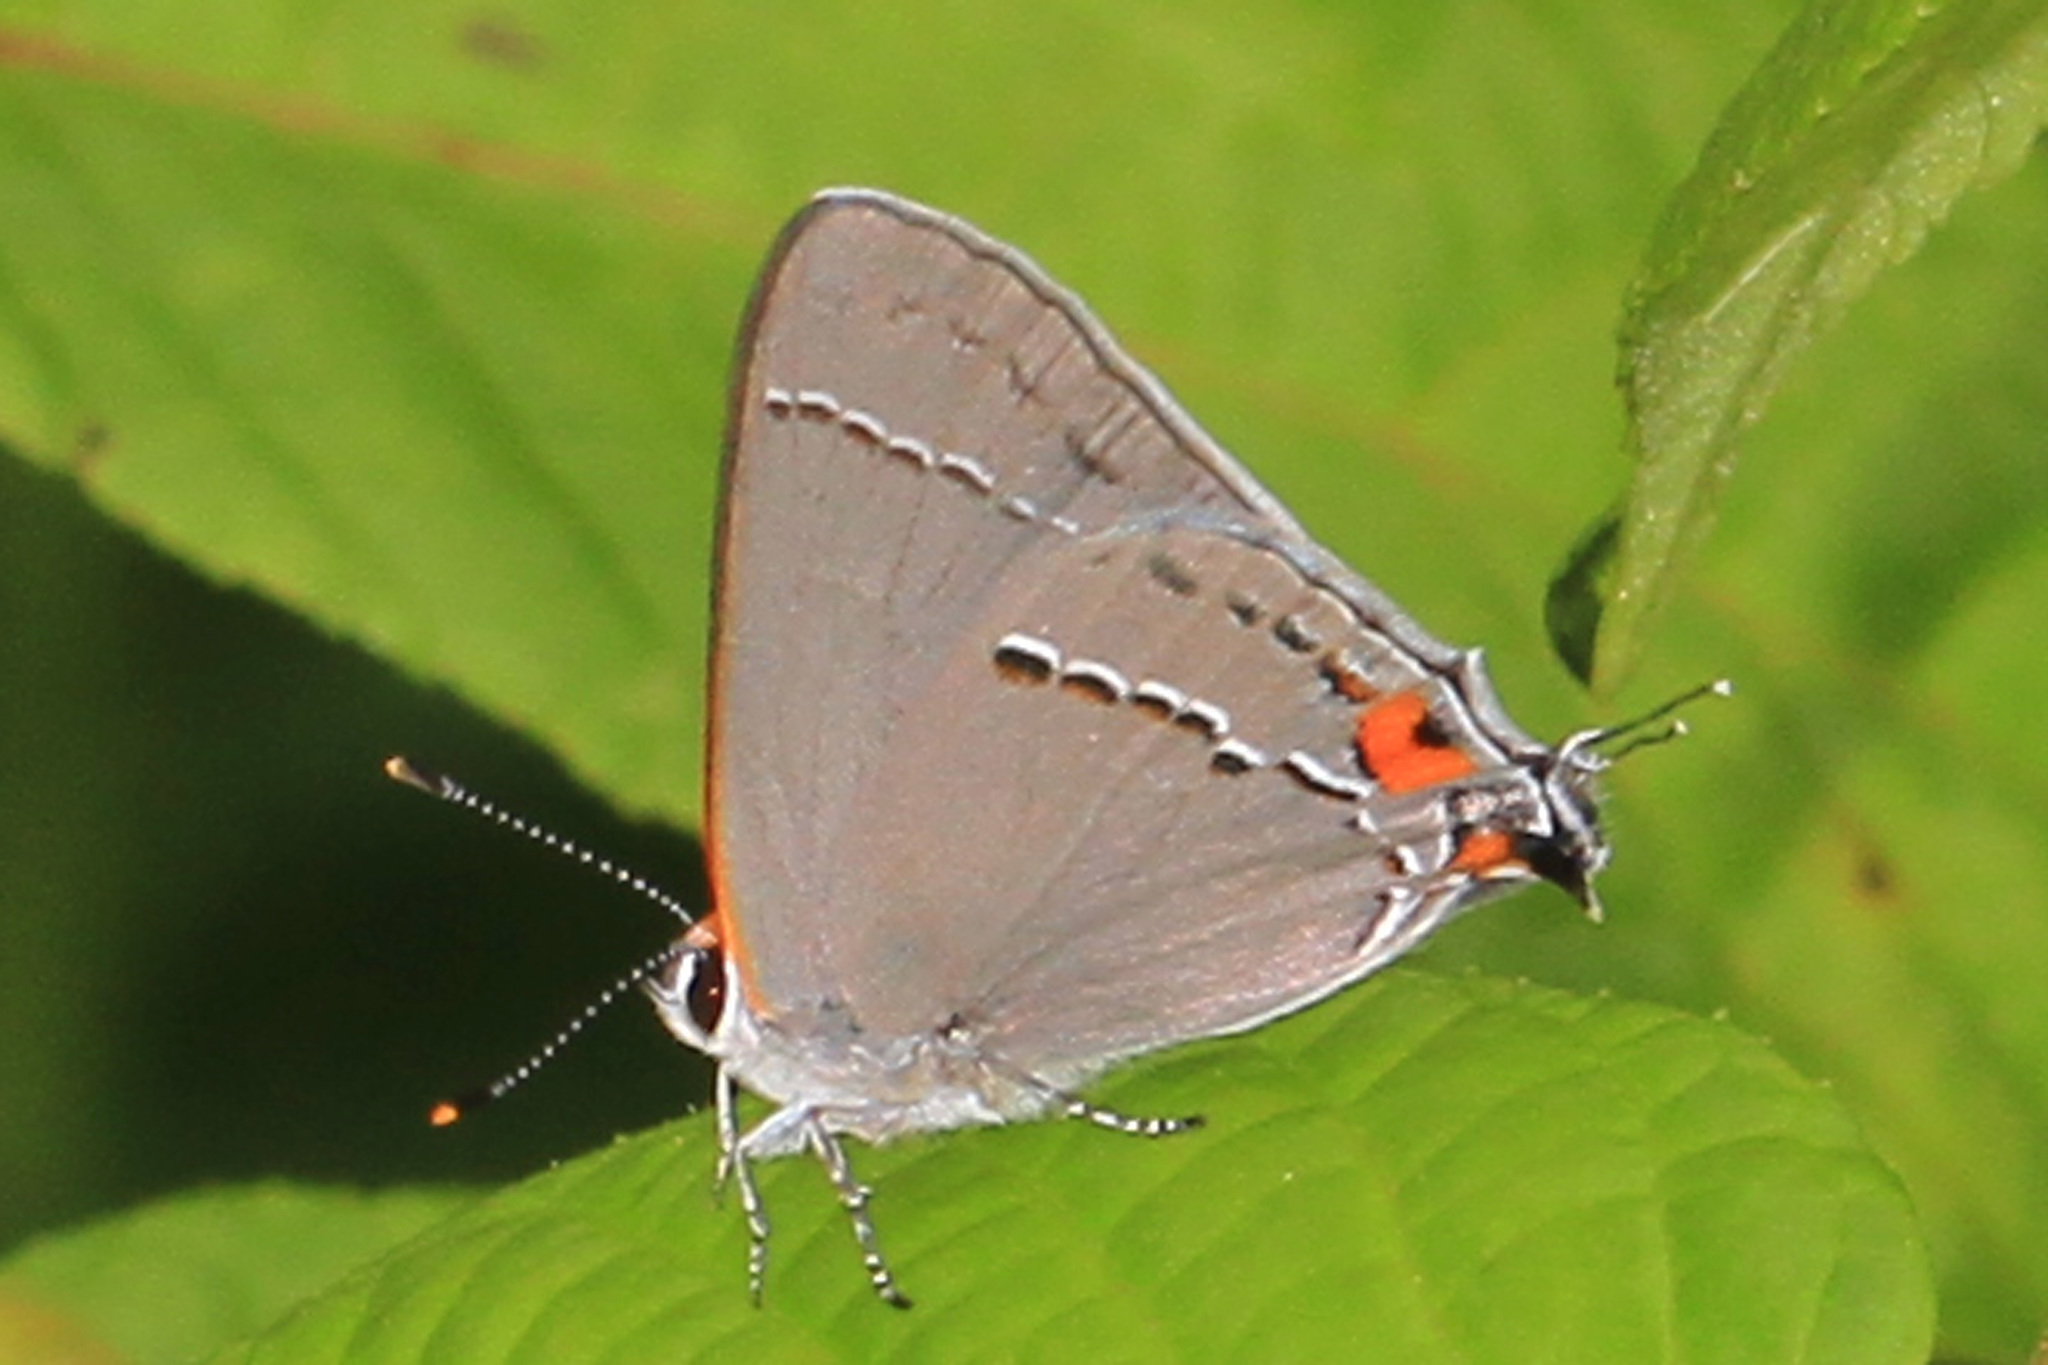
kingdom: Animalia
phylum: Arthropoda
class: Insecta
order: Lepidoptera
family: Lycaenidae
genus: Strymon
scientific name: Strymon melinus
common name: Gray hairstreak
